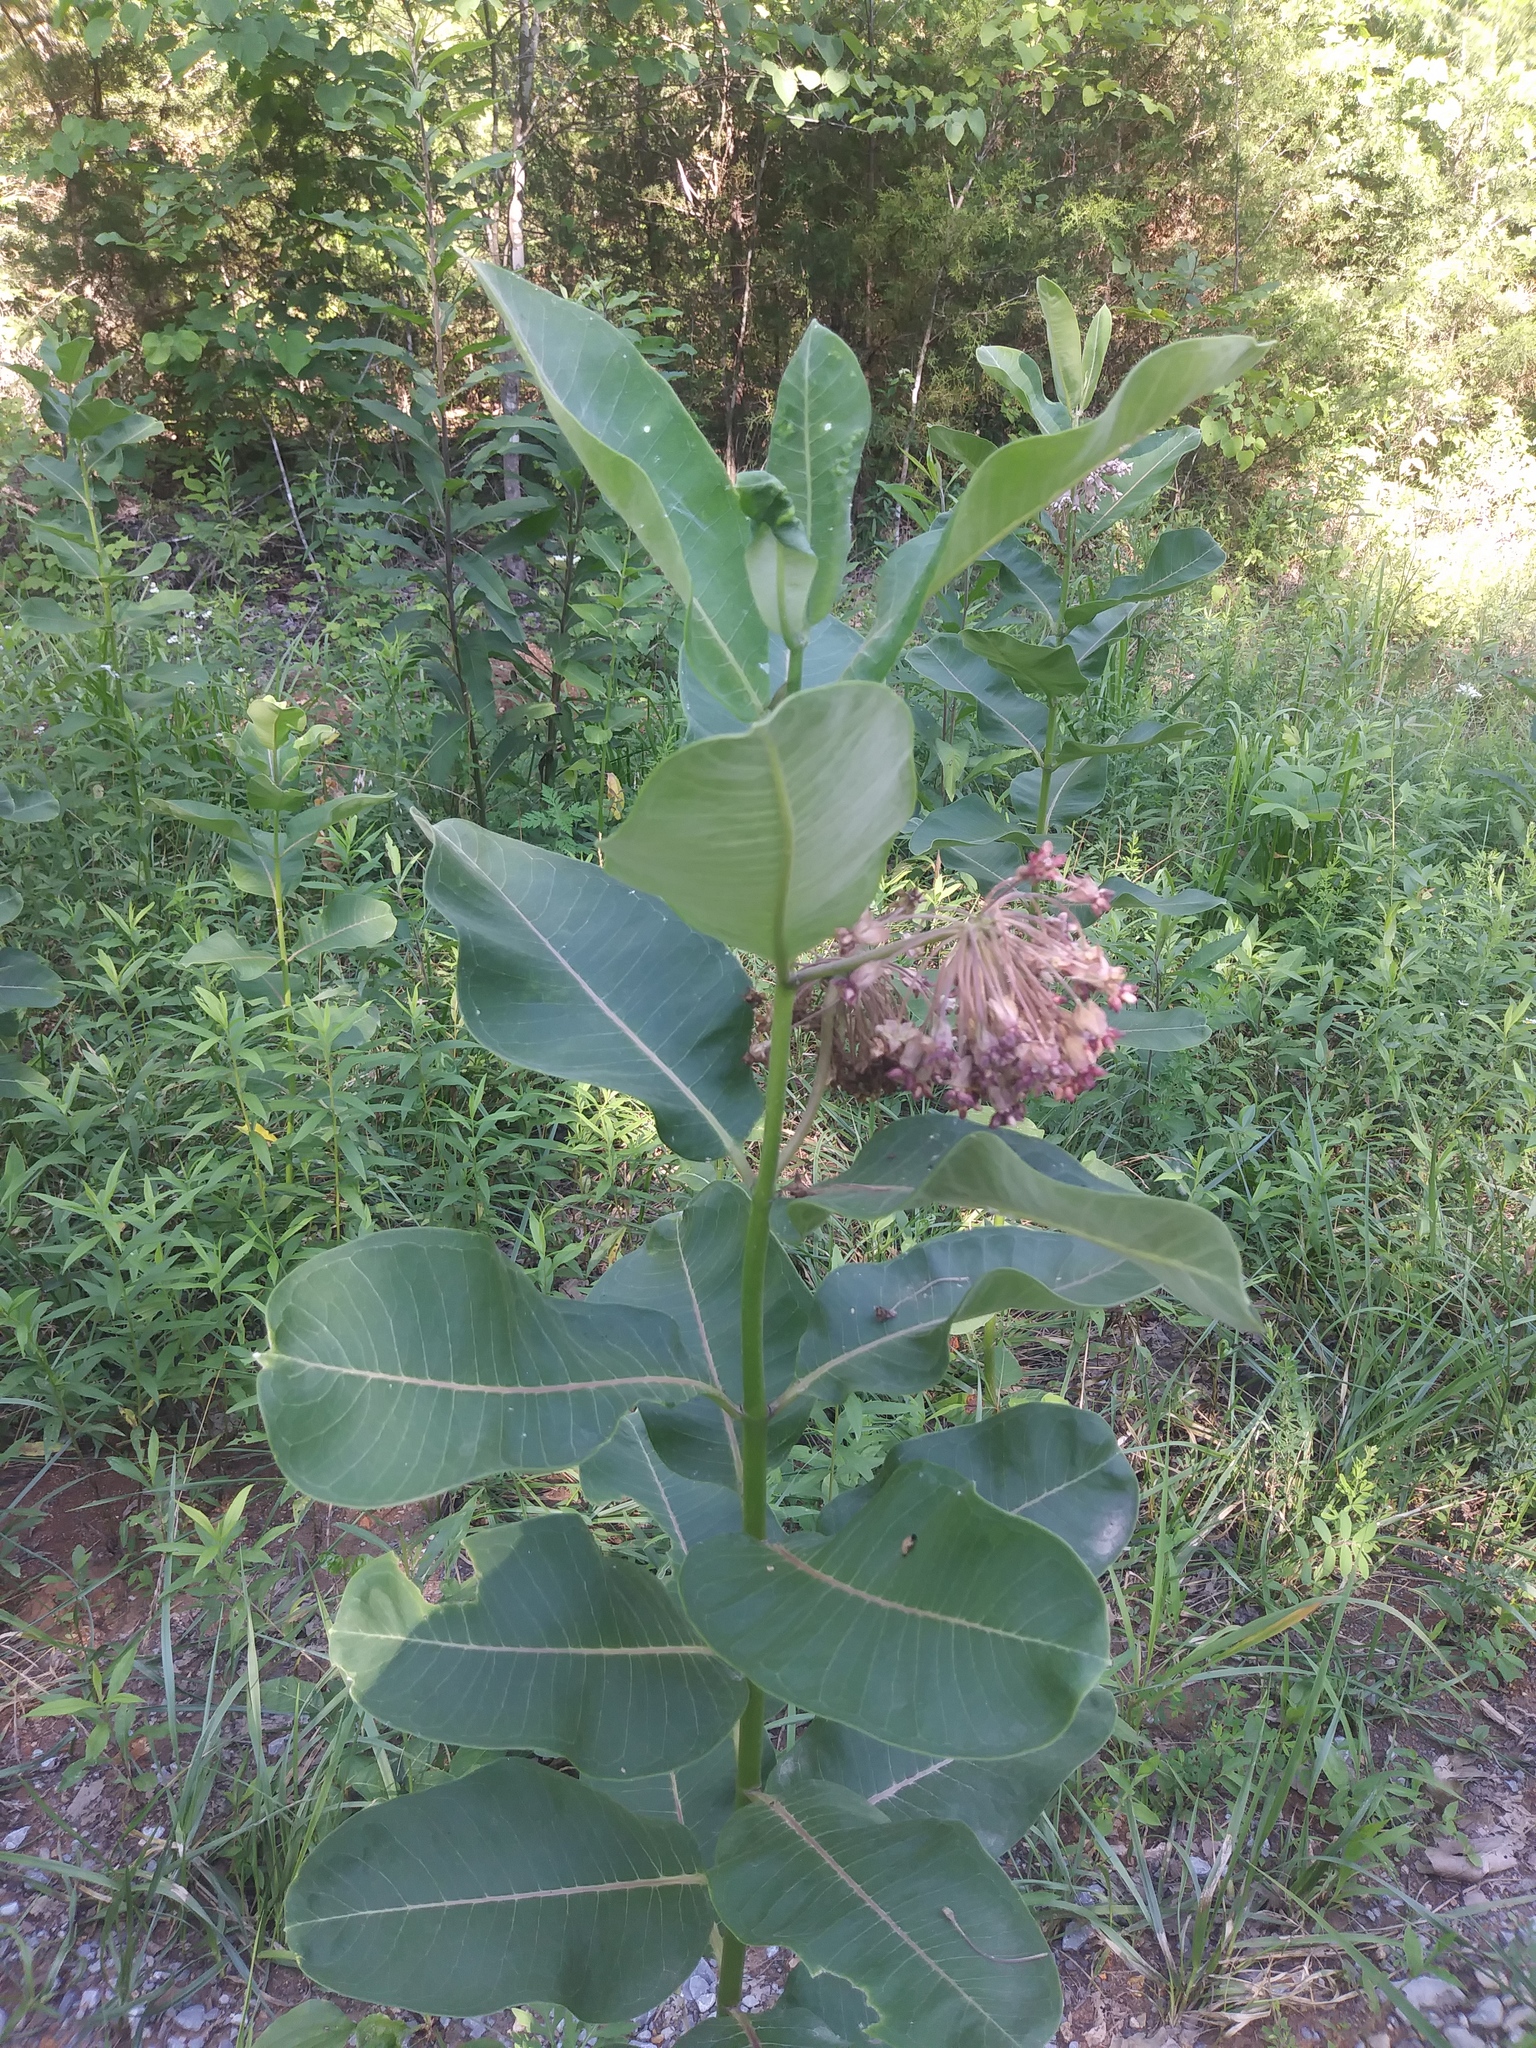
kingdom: Plantae
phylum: Tracheophyta
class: Magnoliopsida
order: Gentianales
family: Apocynaceae
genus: Asclepias
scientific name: Asclepias syriaca
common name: Common milkweed
